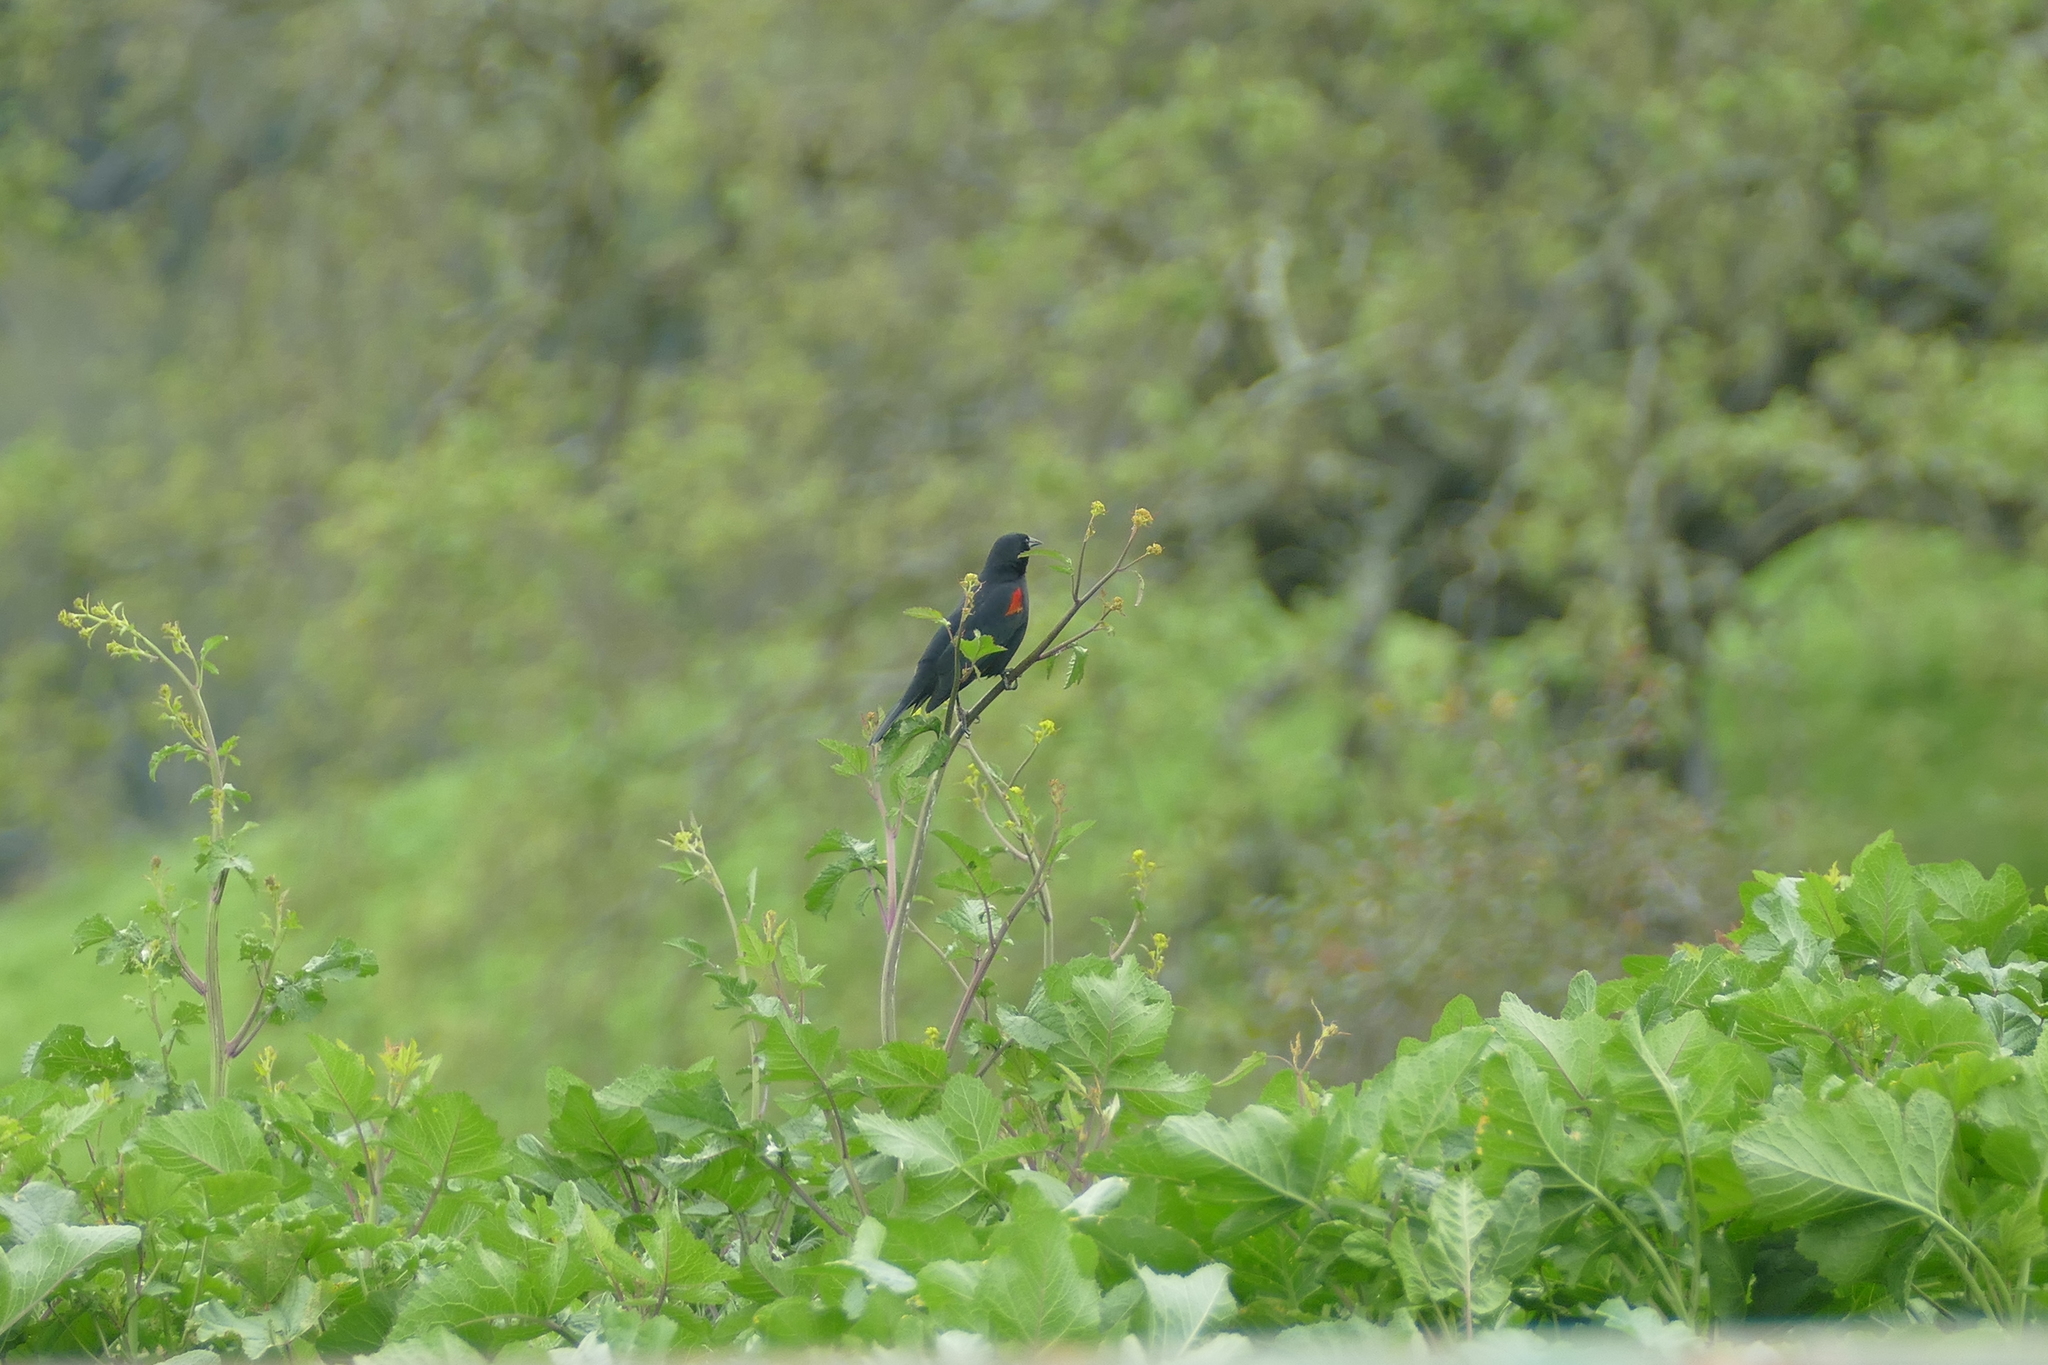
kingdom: Animalia
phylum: Chordata
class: Aves
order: Passeriformes
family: Icteridae
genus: Agelaius
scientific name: Agelaius phoeniceus
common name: Red-winged blackbird
